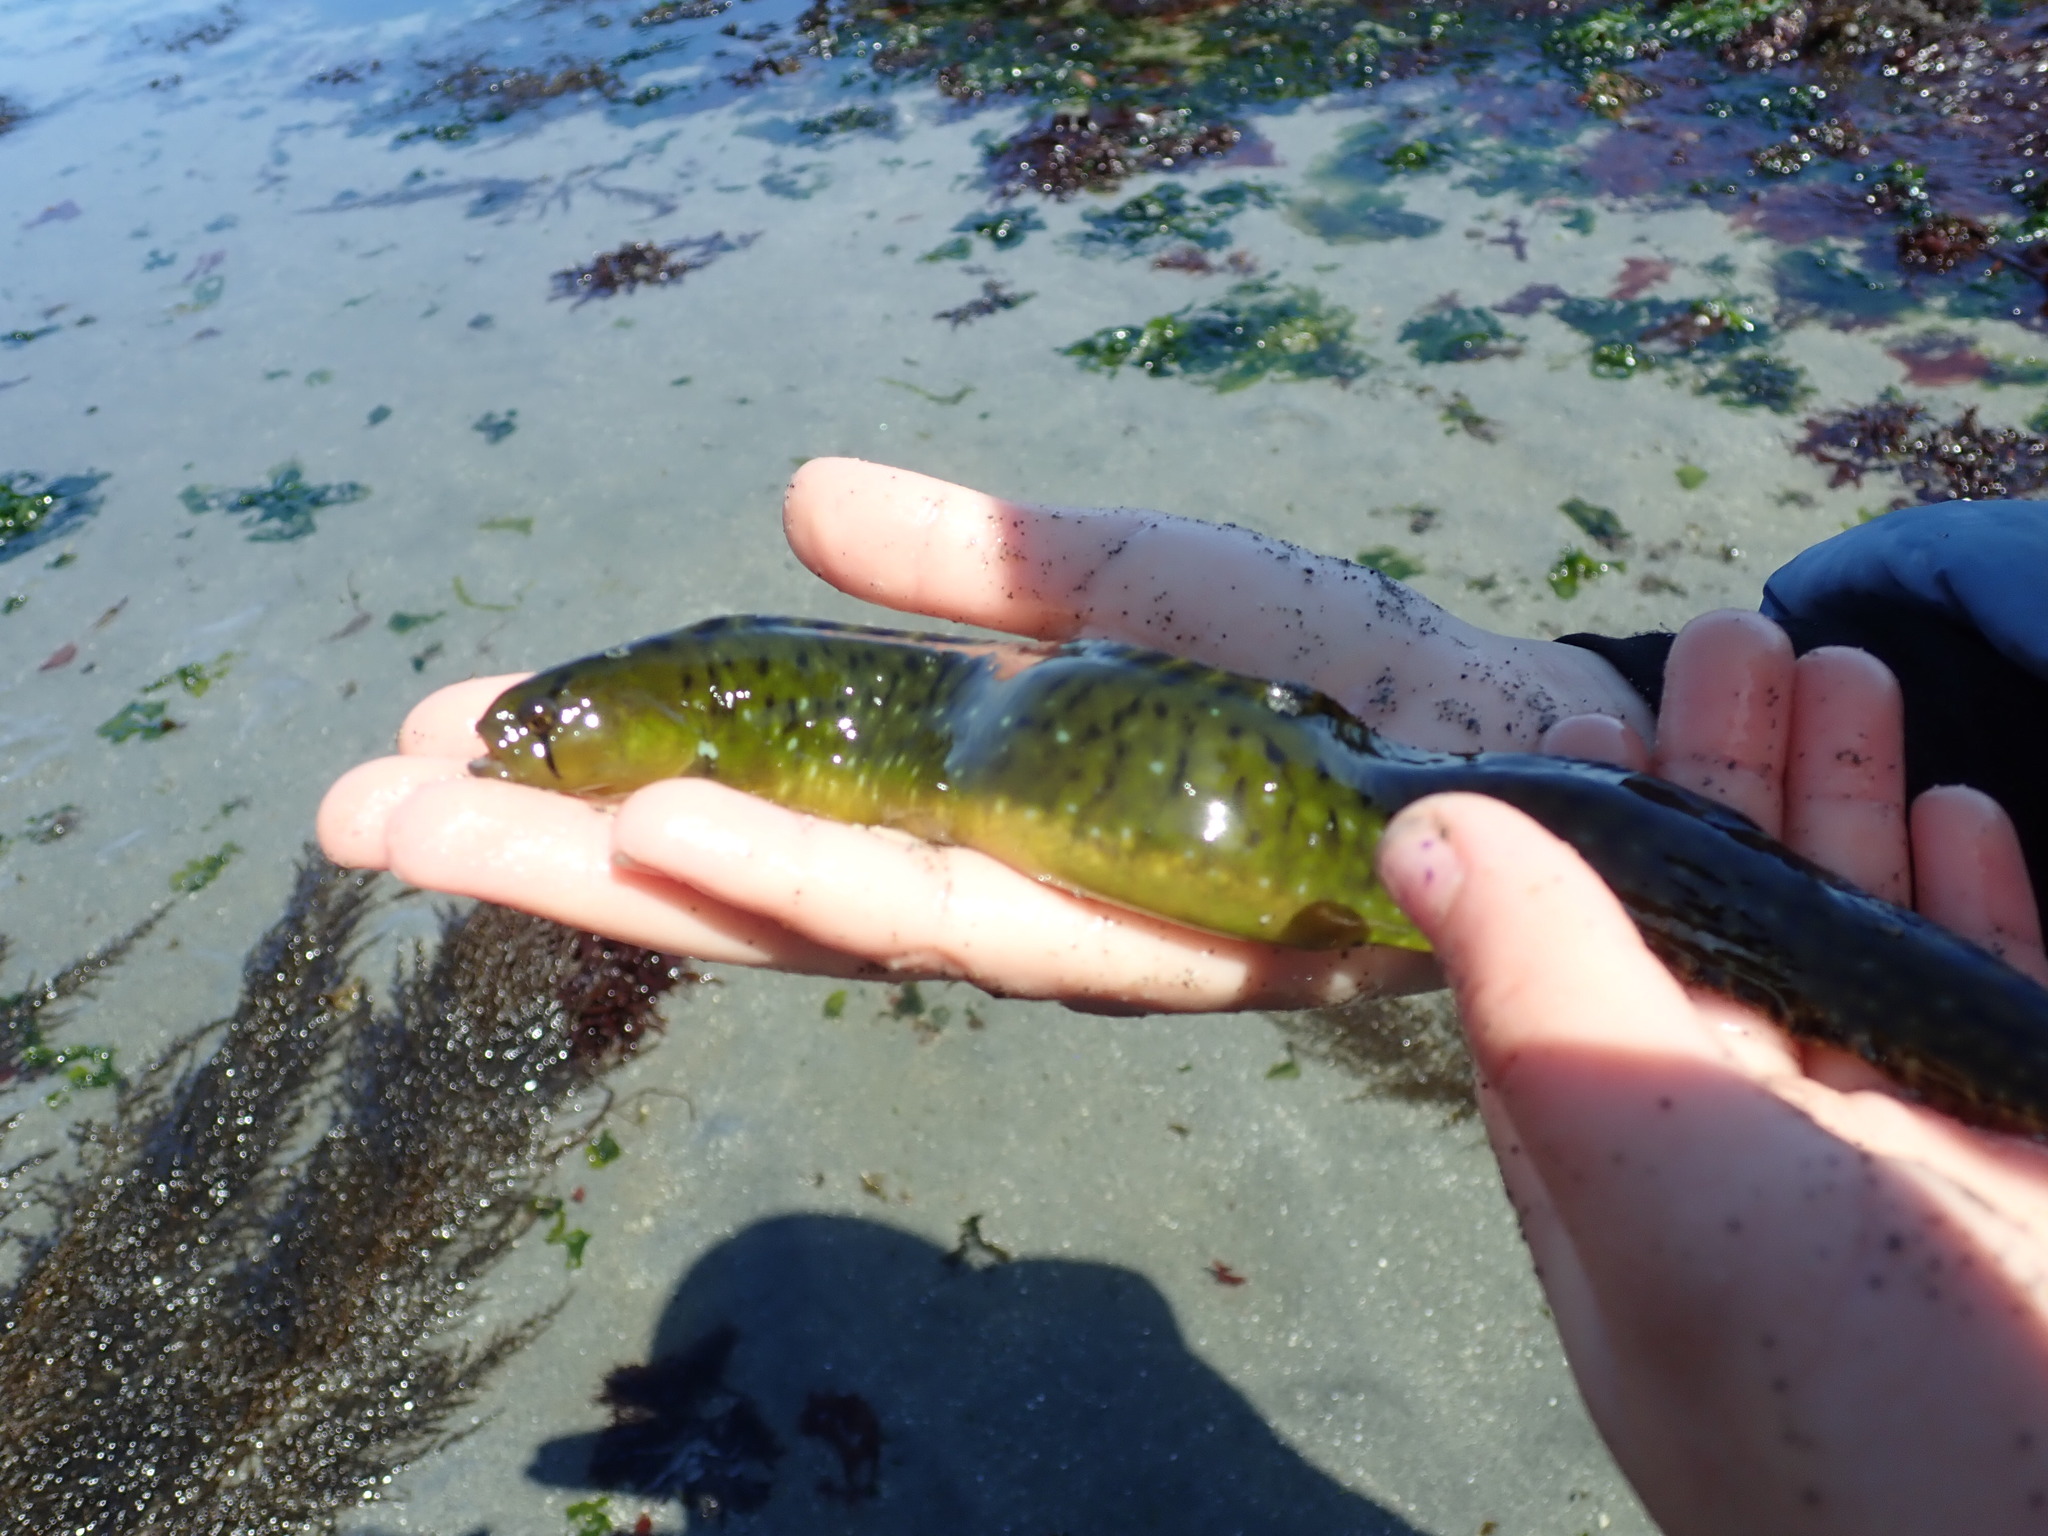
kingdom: Animalia
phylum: Chordata
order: Perciformes
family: Pholidae
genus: Apodichthys
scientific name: Apodichthys flavidus
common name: Penpoint gunnel
